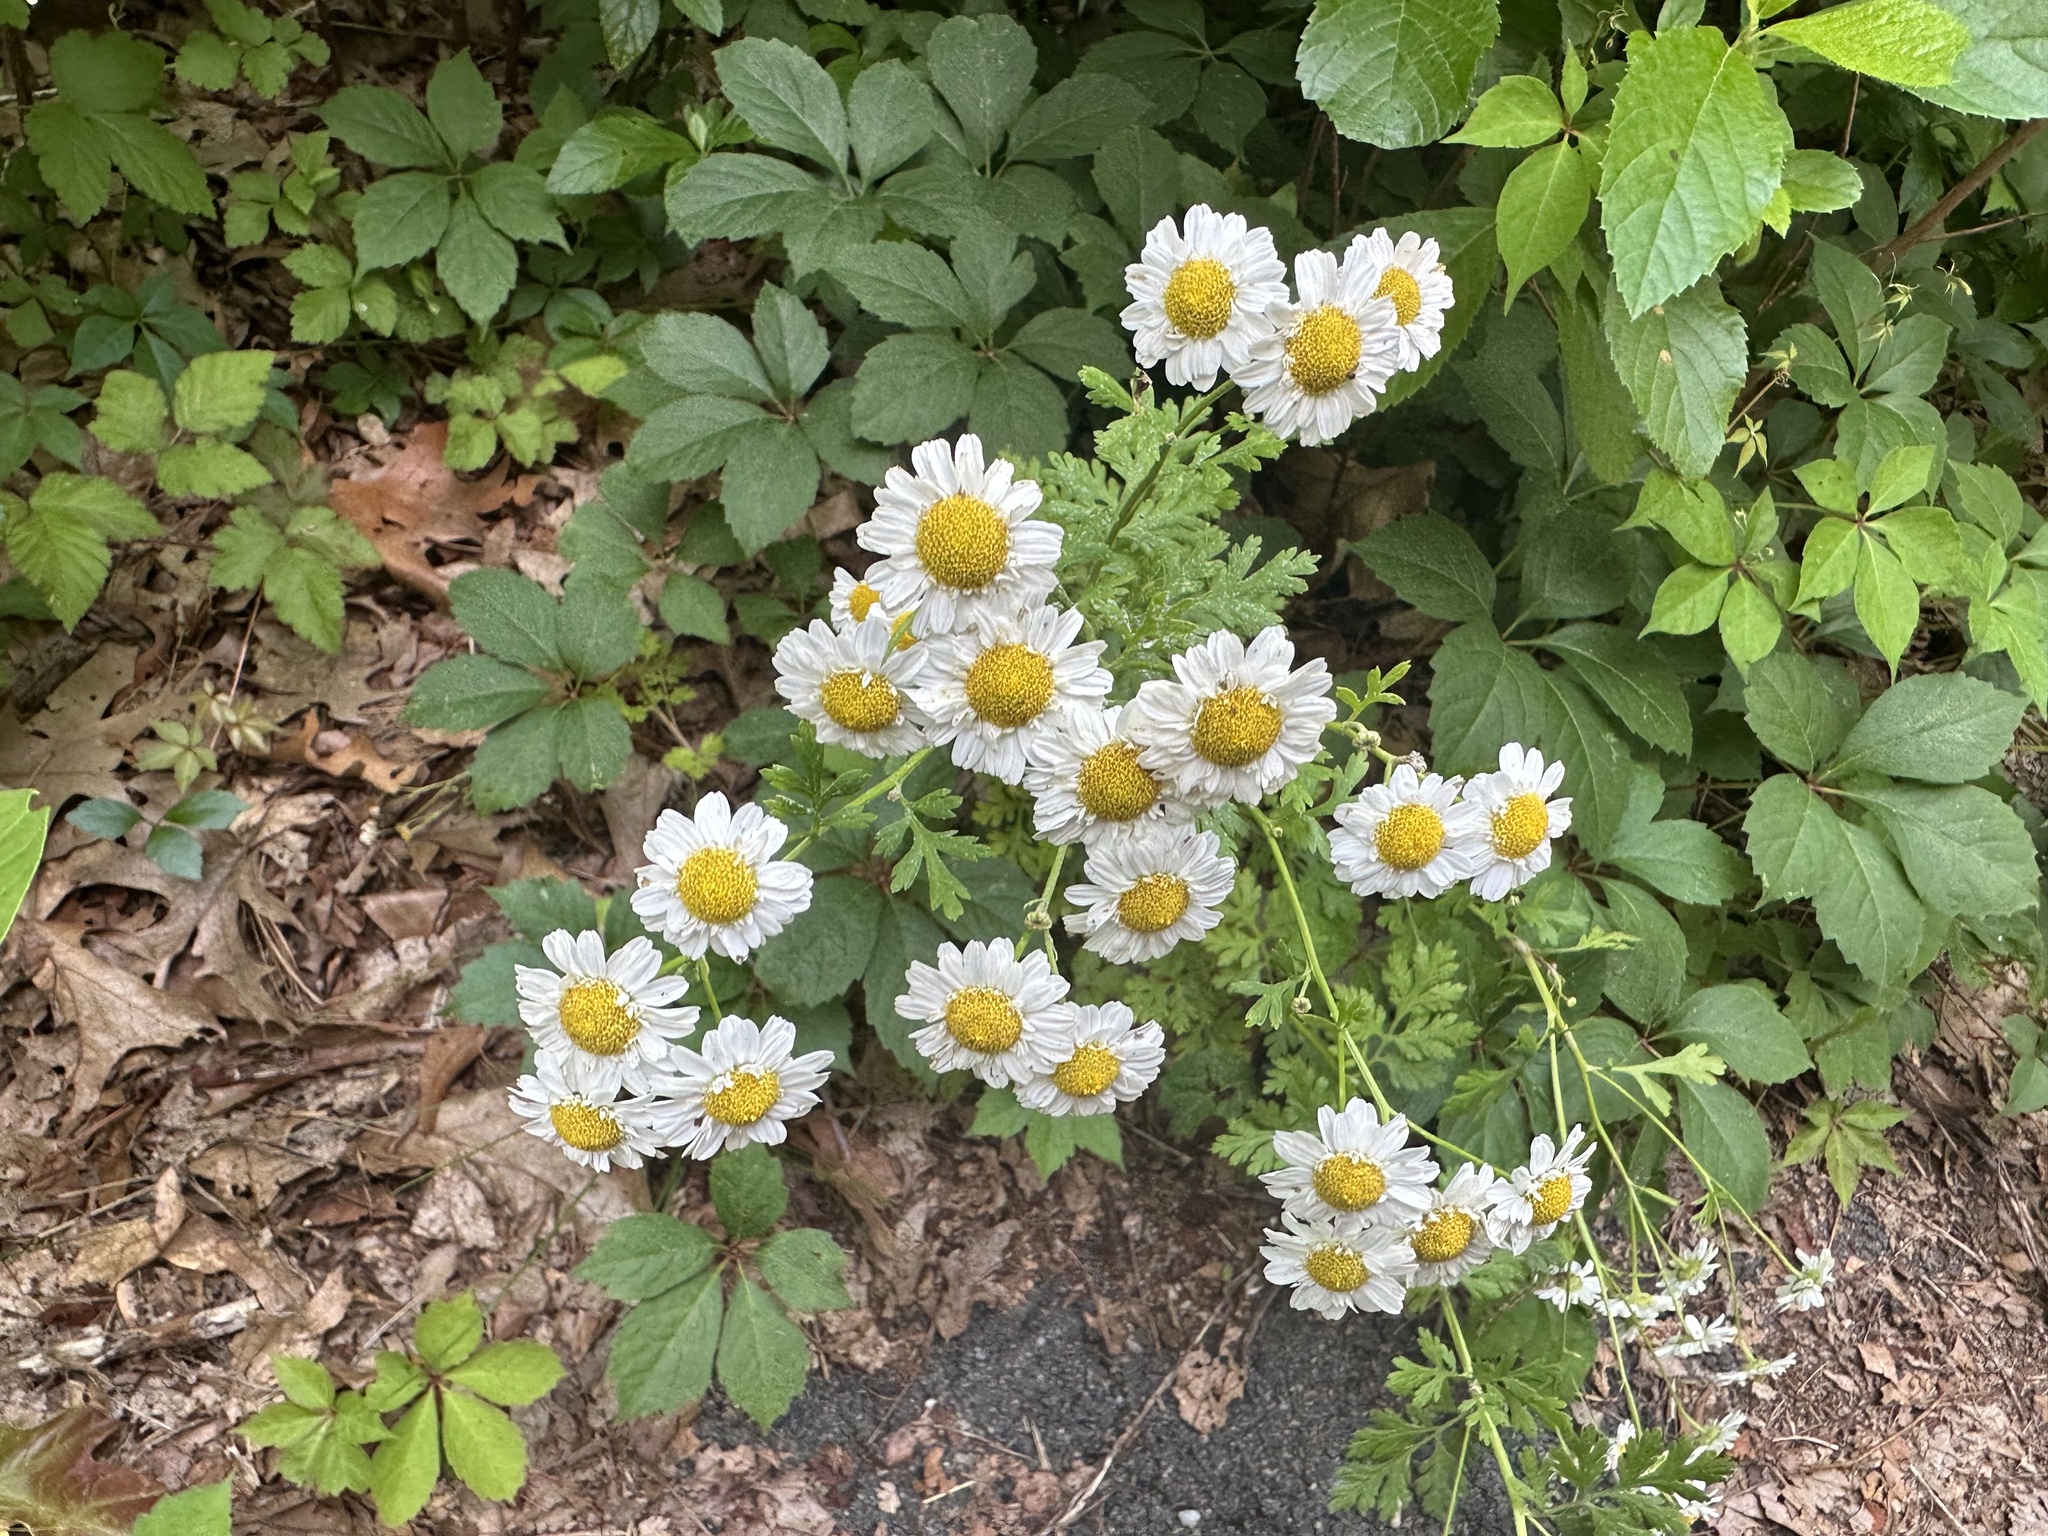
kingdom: Plantae
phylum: Tracheophyta
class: Magnoliopsida
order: Asterales
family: Asteraceae
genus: Tanacetum
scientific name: Tanacetum parthenium
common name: Feverfew
